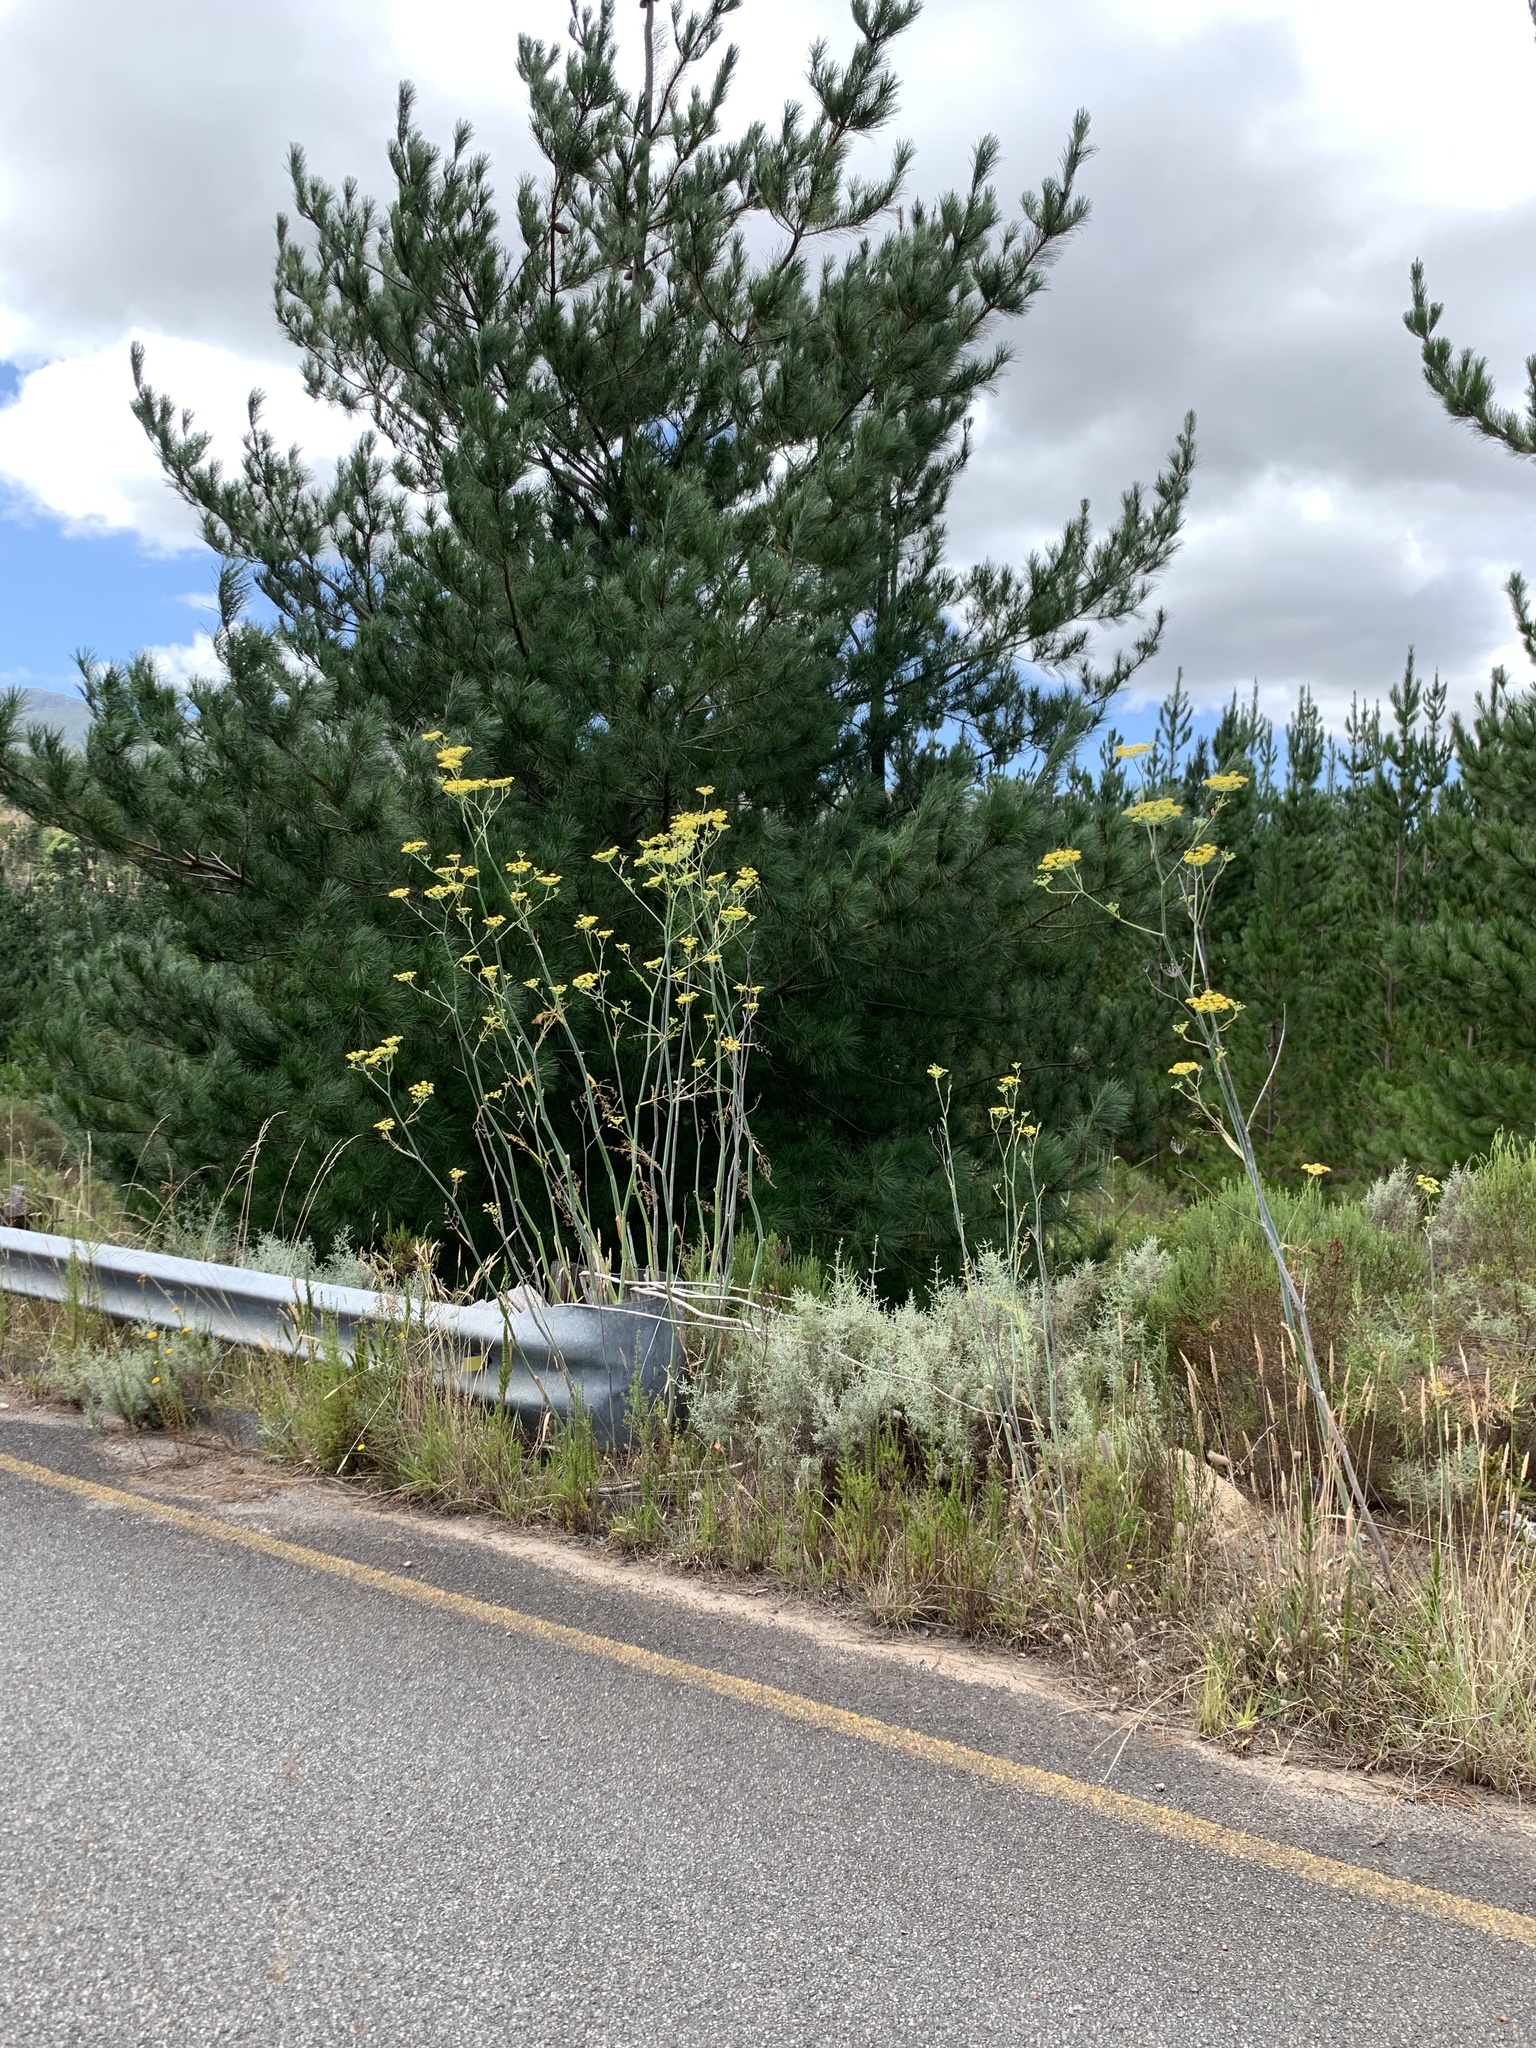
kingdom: Plantae
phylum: Tracheophyta
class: Magnoliopsida
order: Apiales
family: Apiaceae
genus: Foeniculum
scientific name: Foeniculum vulgare
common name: Fennel
